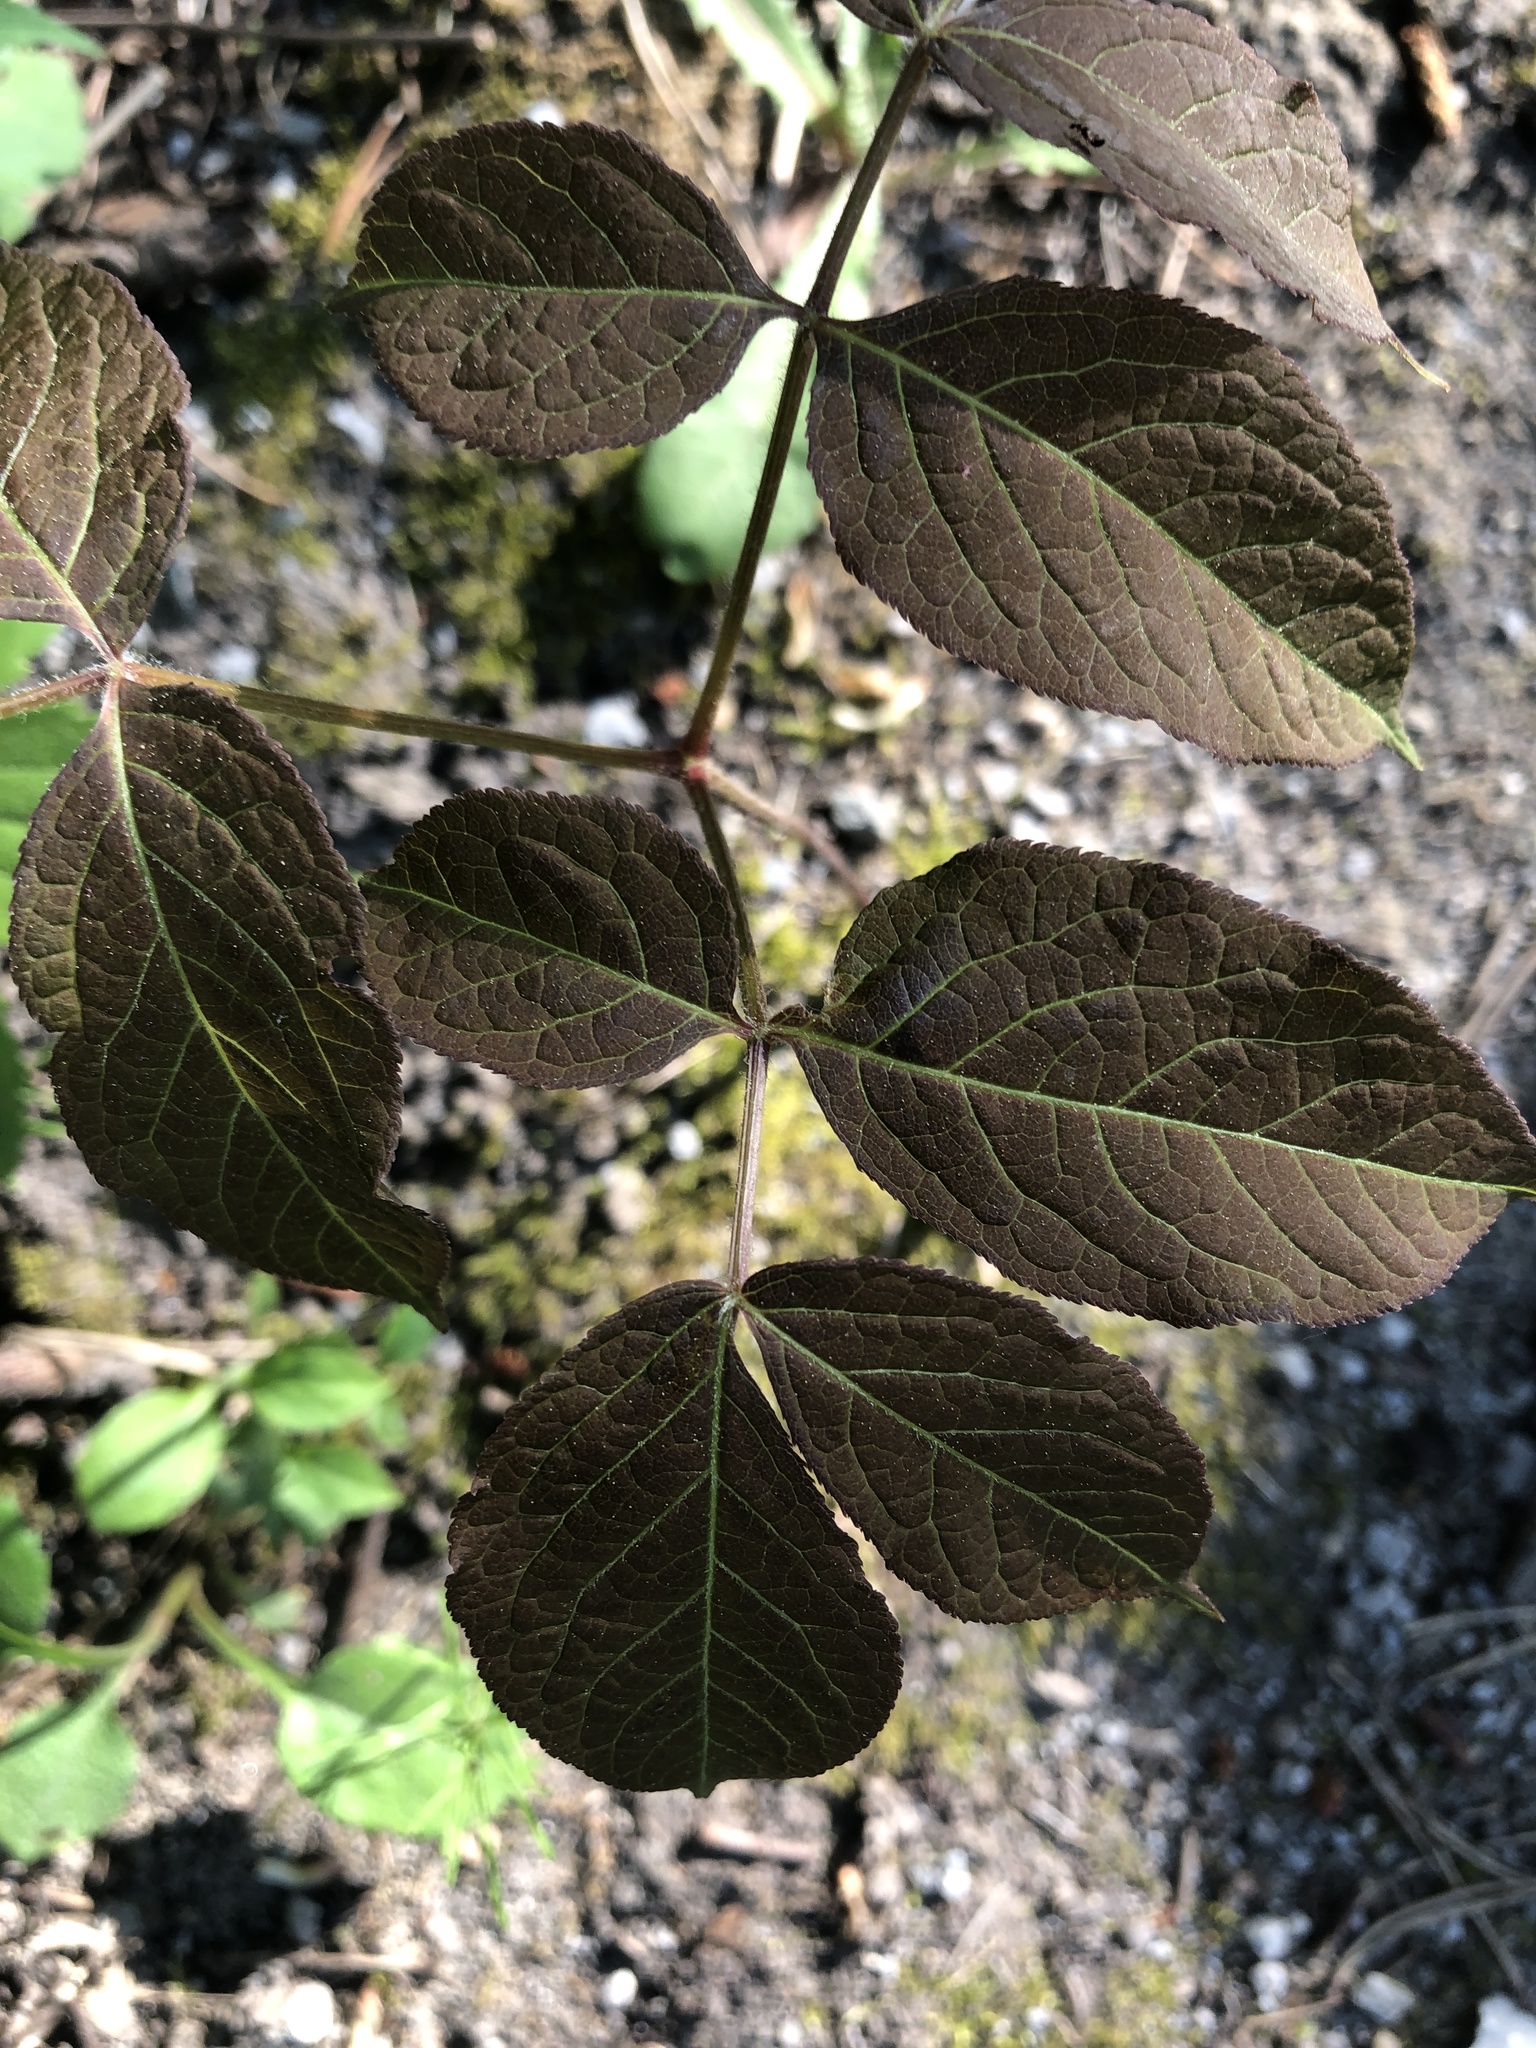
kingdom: Plantae
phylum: Tracheophyta
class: Magnoliopsida
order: Apiales
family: Araliaceae
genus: Aralia
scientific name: Aralia nudicaulis
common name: Wild sarsaparilla
